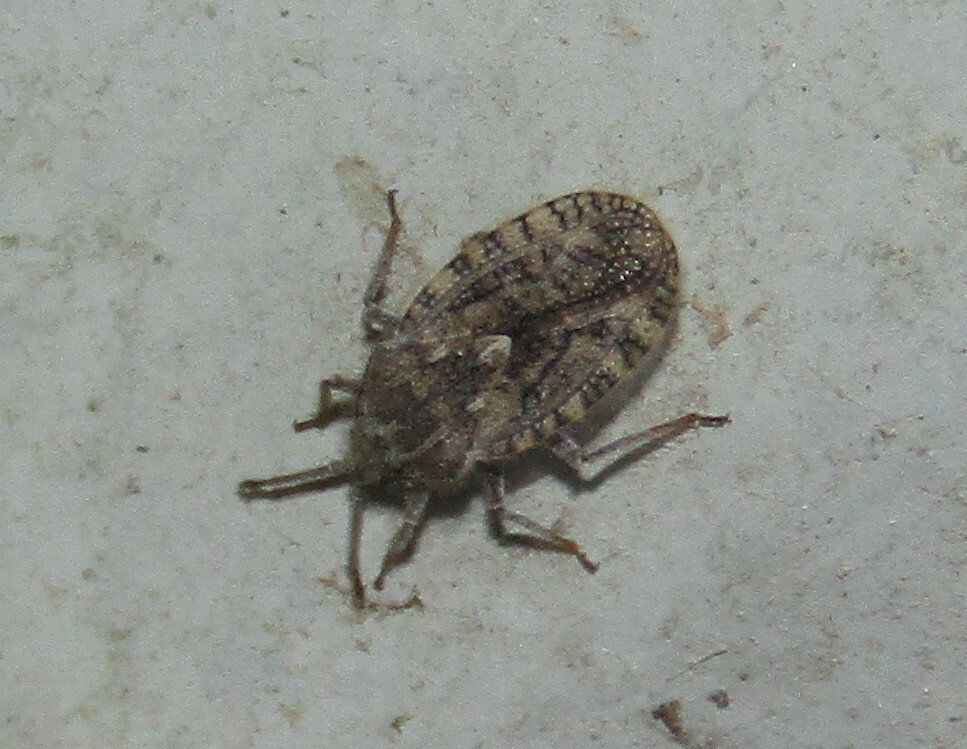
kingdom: Animalia
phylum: Arthropoda
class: Insecta
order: Hemiptera
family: Tingidae
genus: Tingis
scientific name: Tingis pilosa
